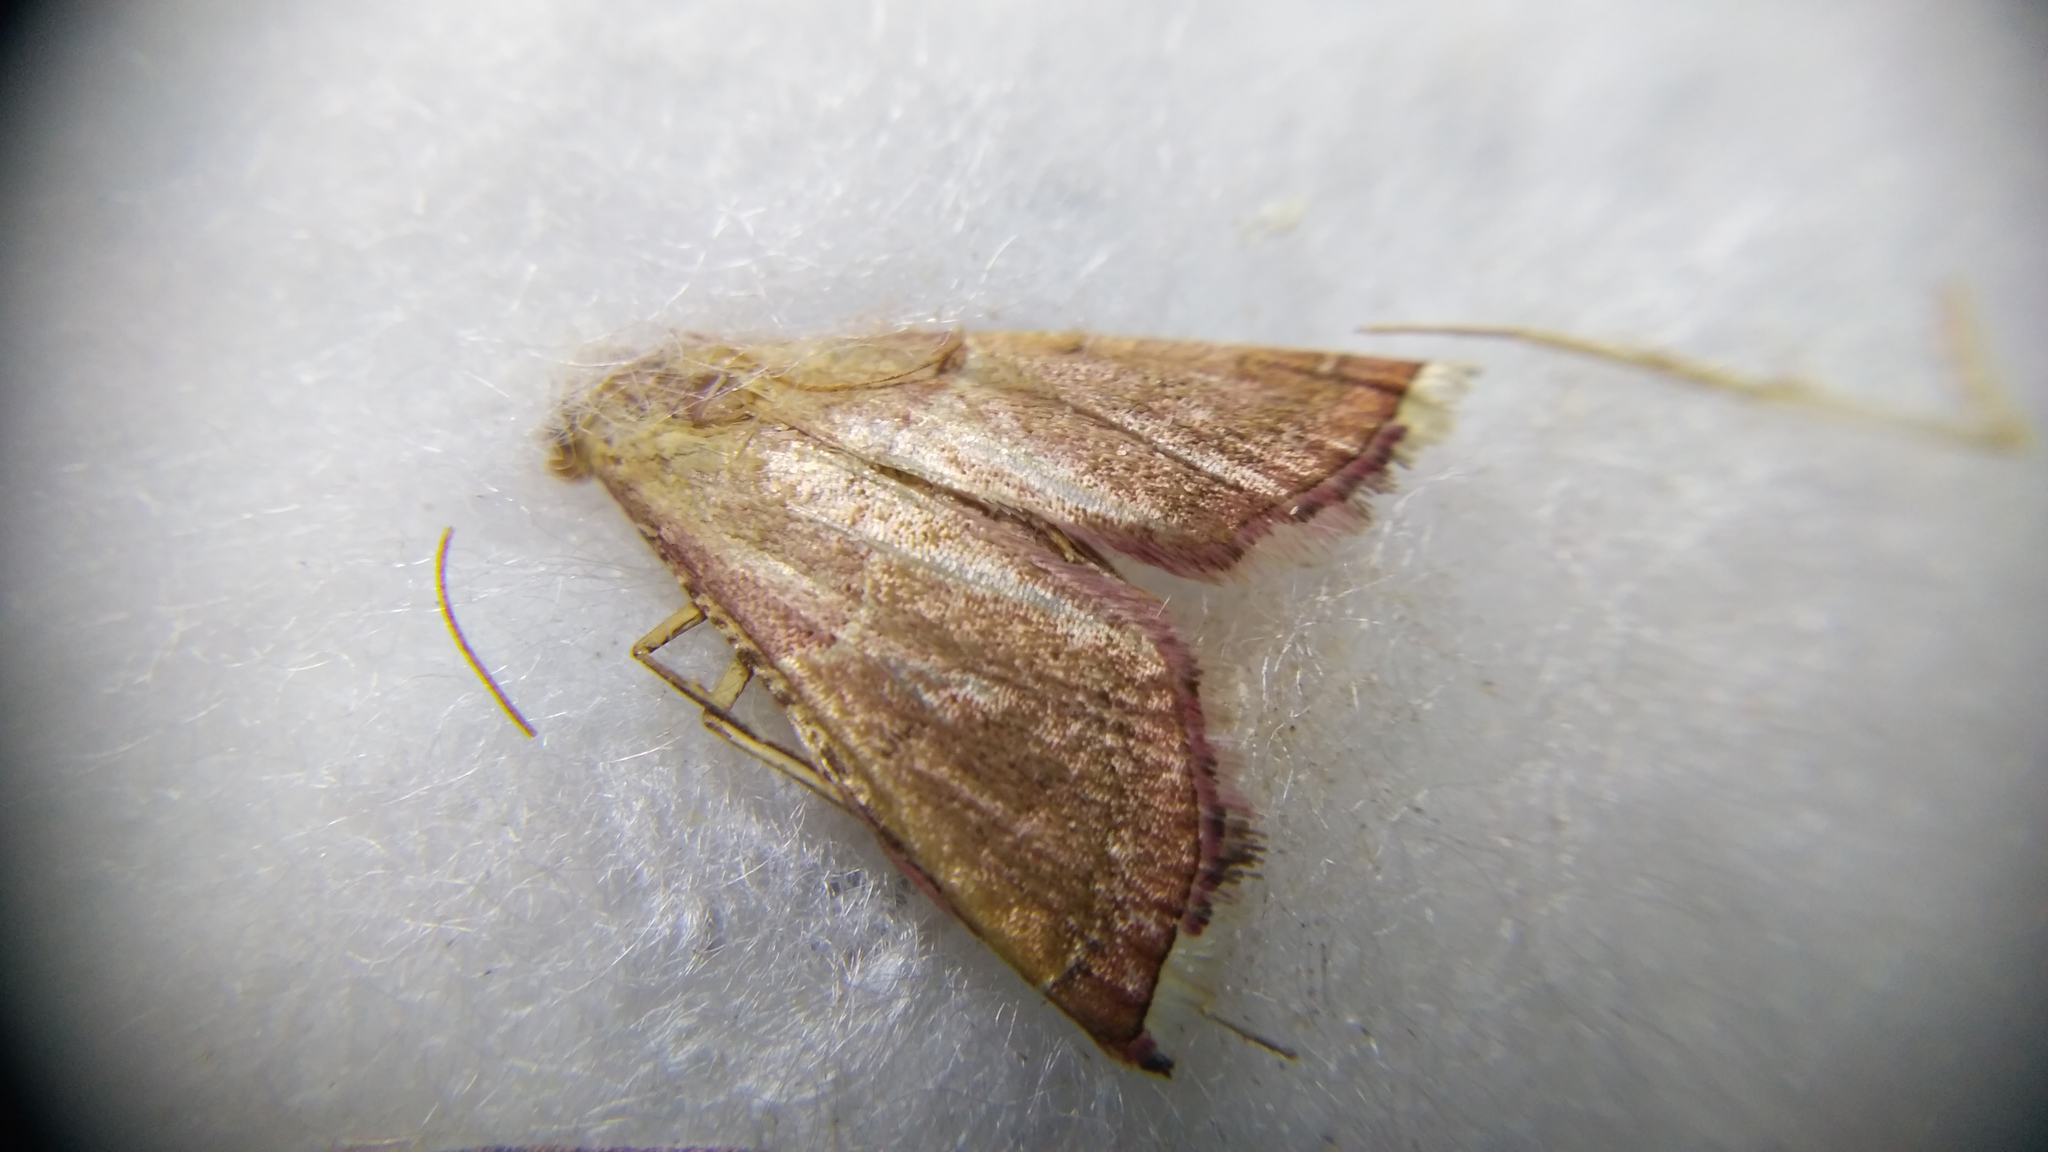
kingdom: Animalia
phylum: Arthropoda
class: Insecta
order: Lepidoptera
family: Pyralidae
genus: Endotricha
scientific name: Endotricha flammealis
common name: Rosy tabby
